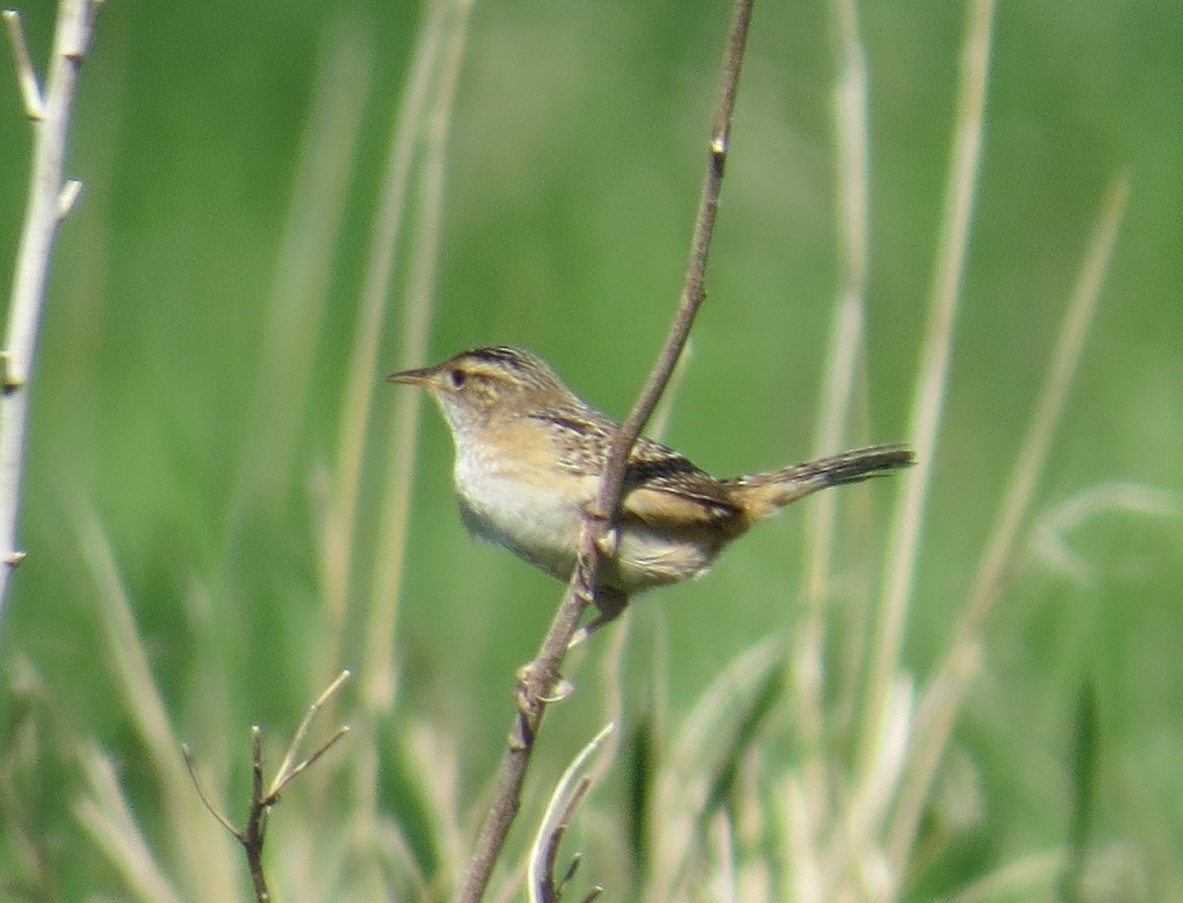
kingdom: Animalia
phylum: Chordata
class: Aves
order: Passeriformes
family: Troglodytidae
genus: Cistothorus
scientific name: Cistothorus platensis
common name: Sedge wren
